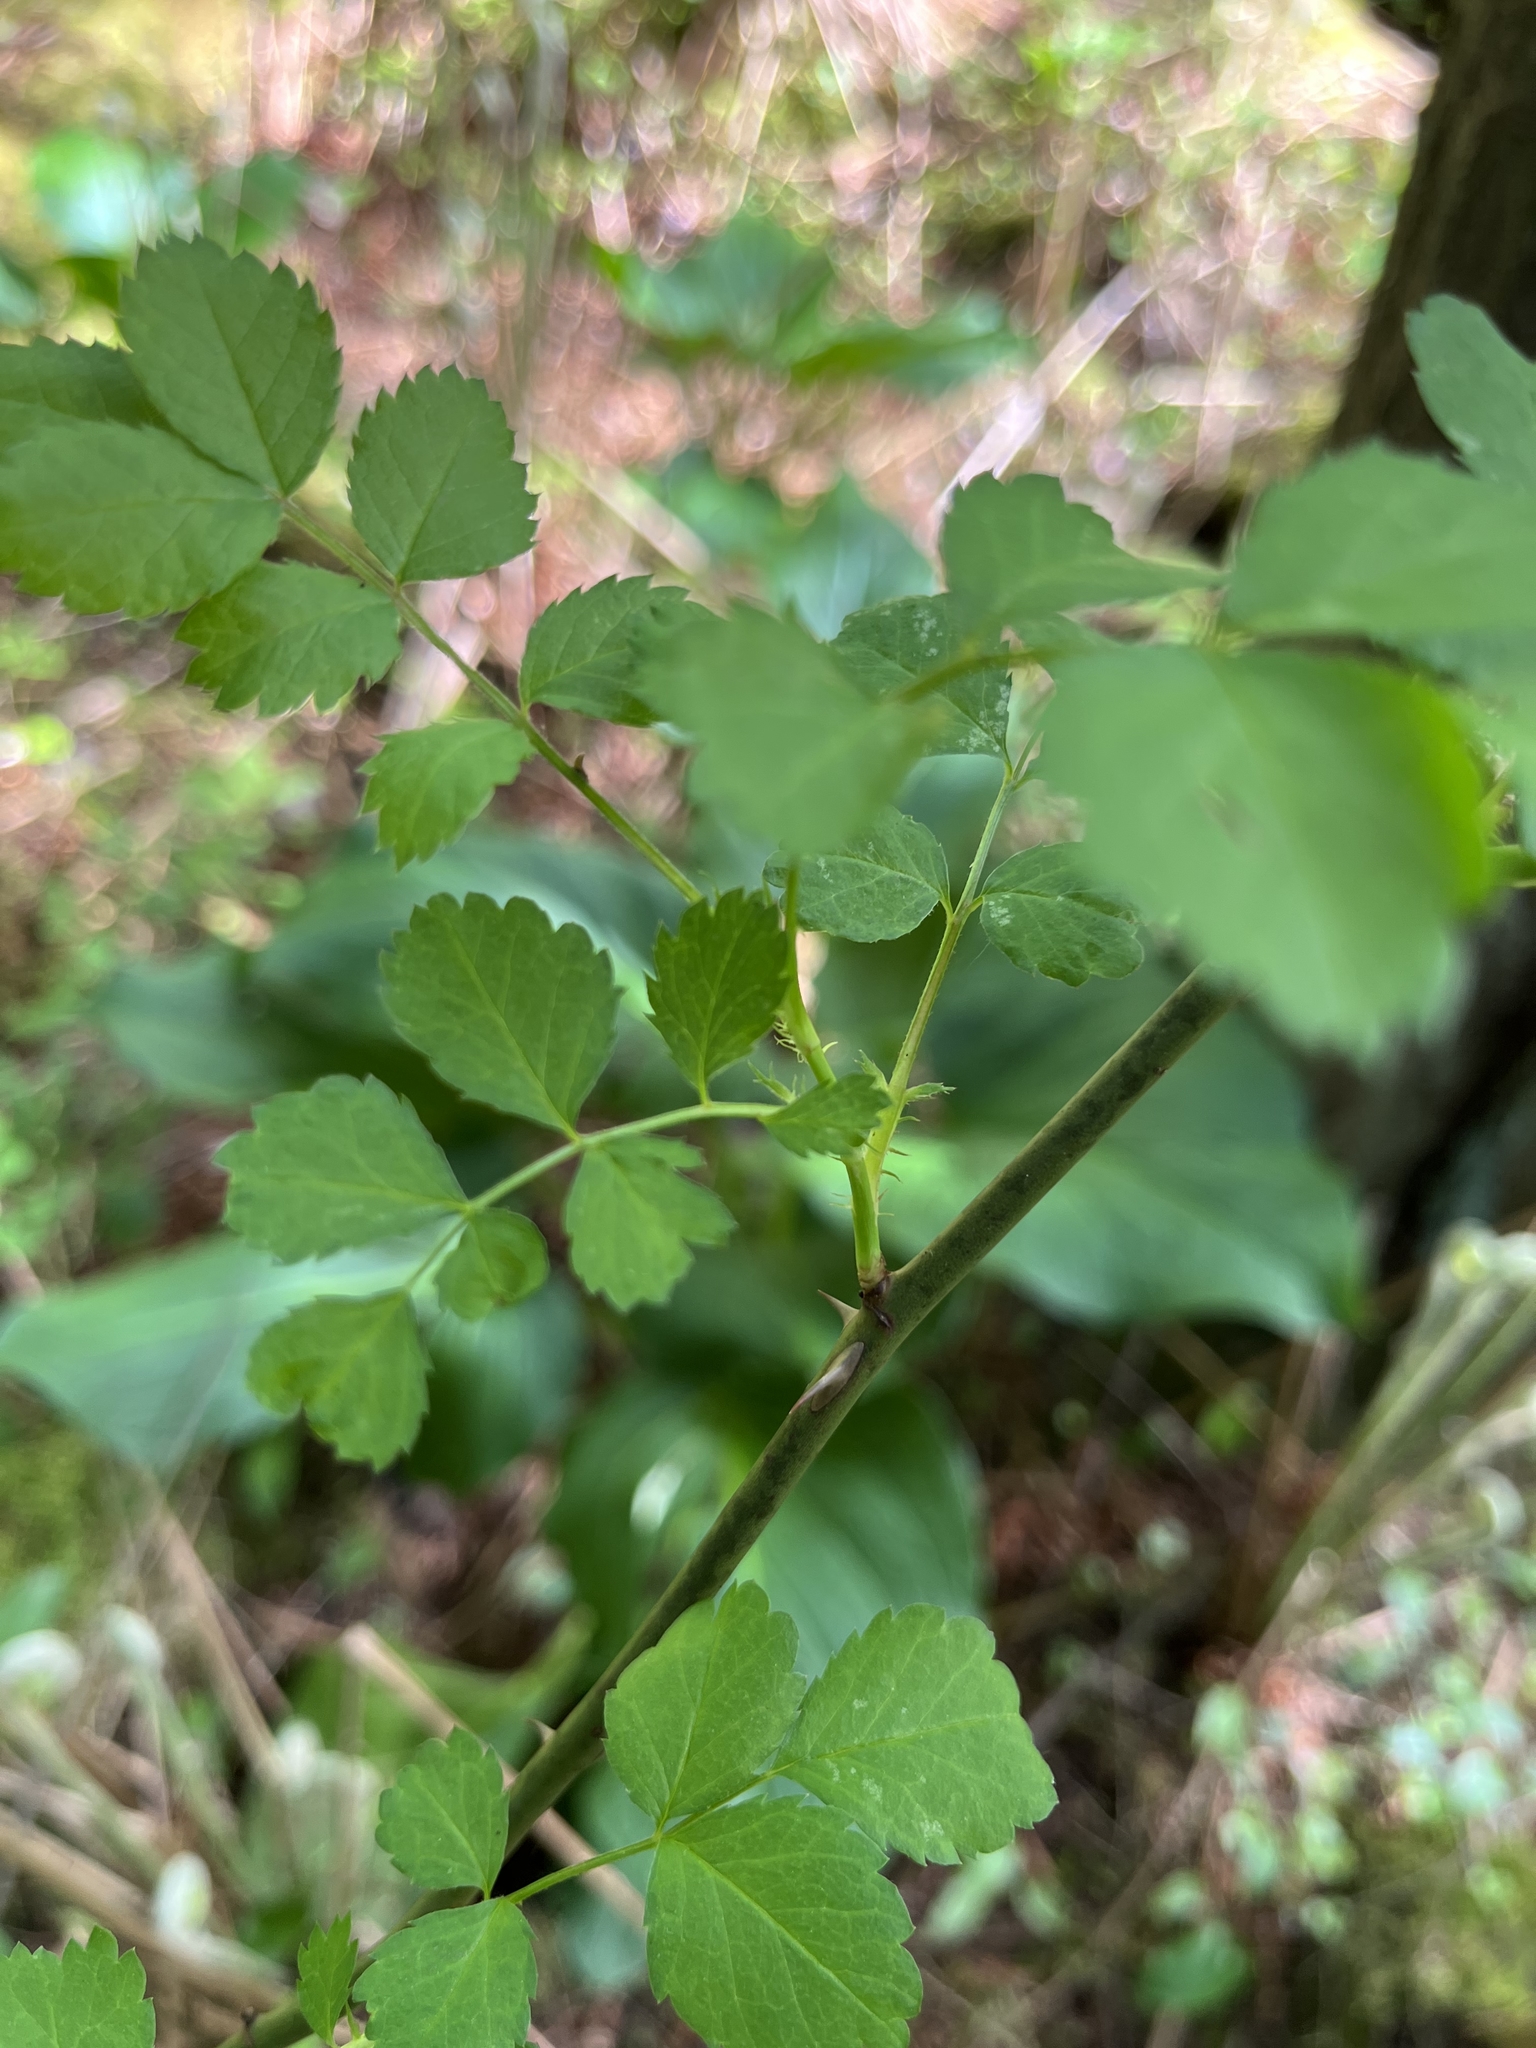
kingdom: Plantae
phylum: Tracheophyta
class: Magnoliopsida
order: Rosales
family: Rosaceae
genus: Rosa
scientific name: Rosa multiflora
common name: Multiflora rose
